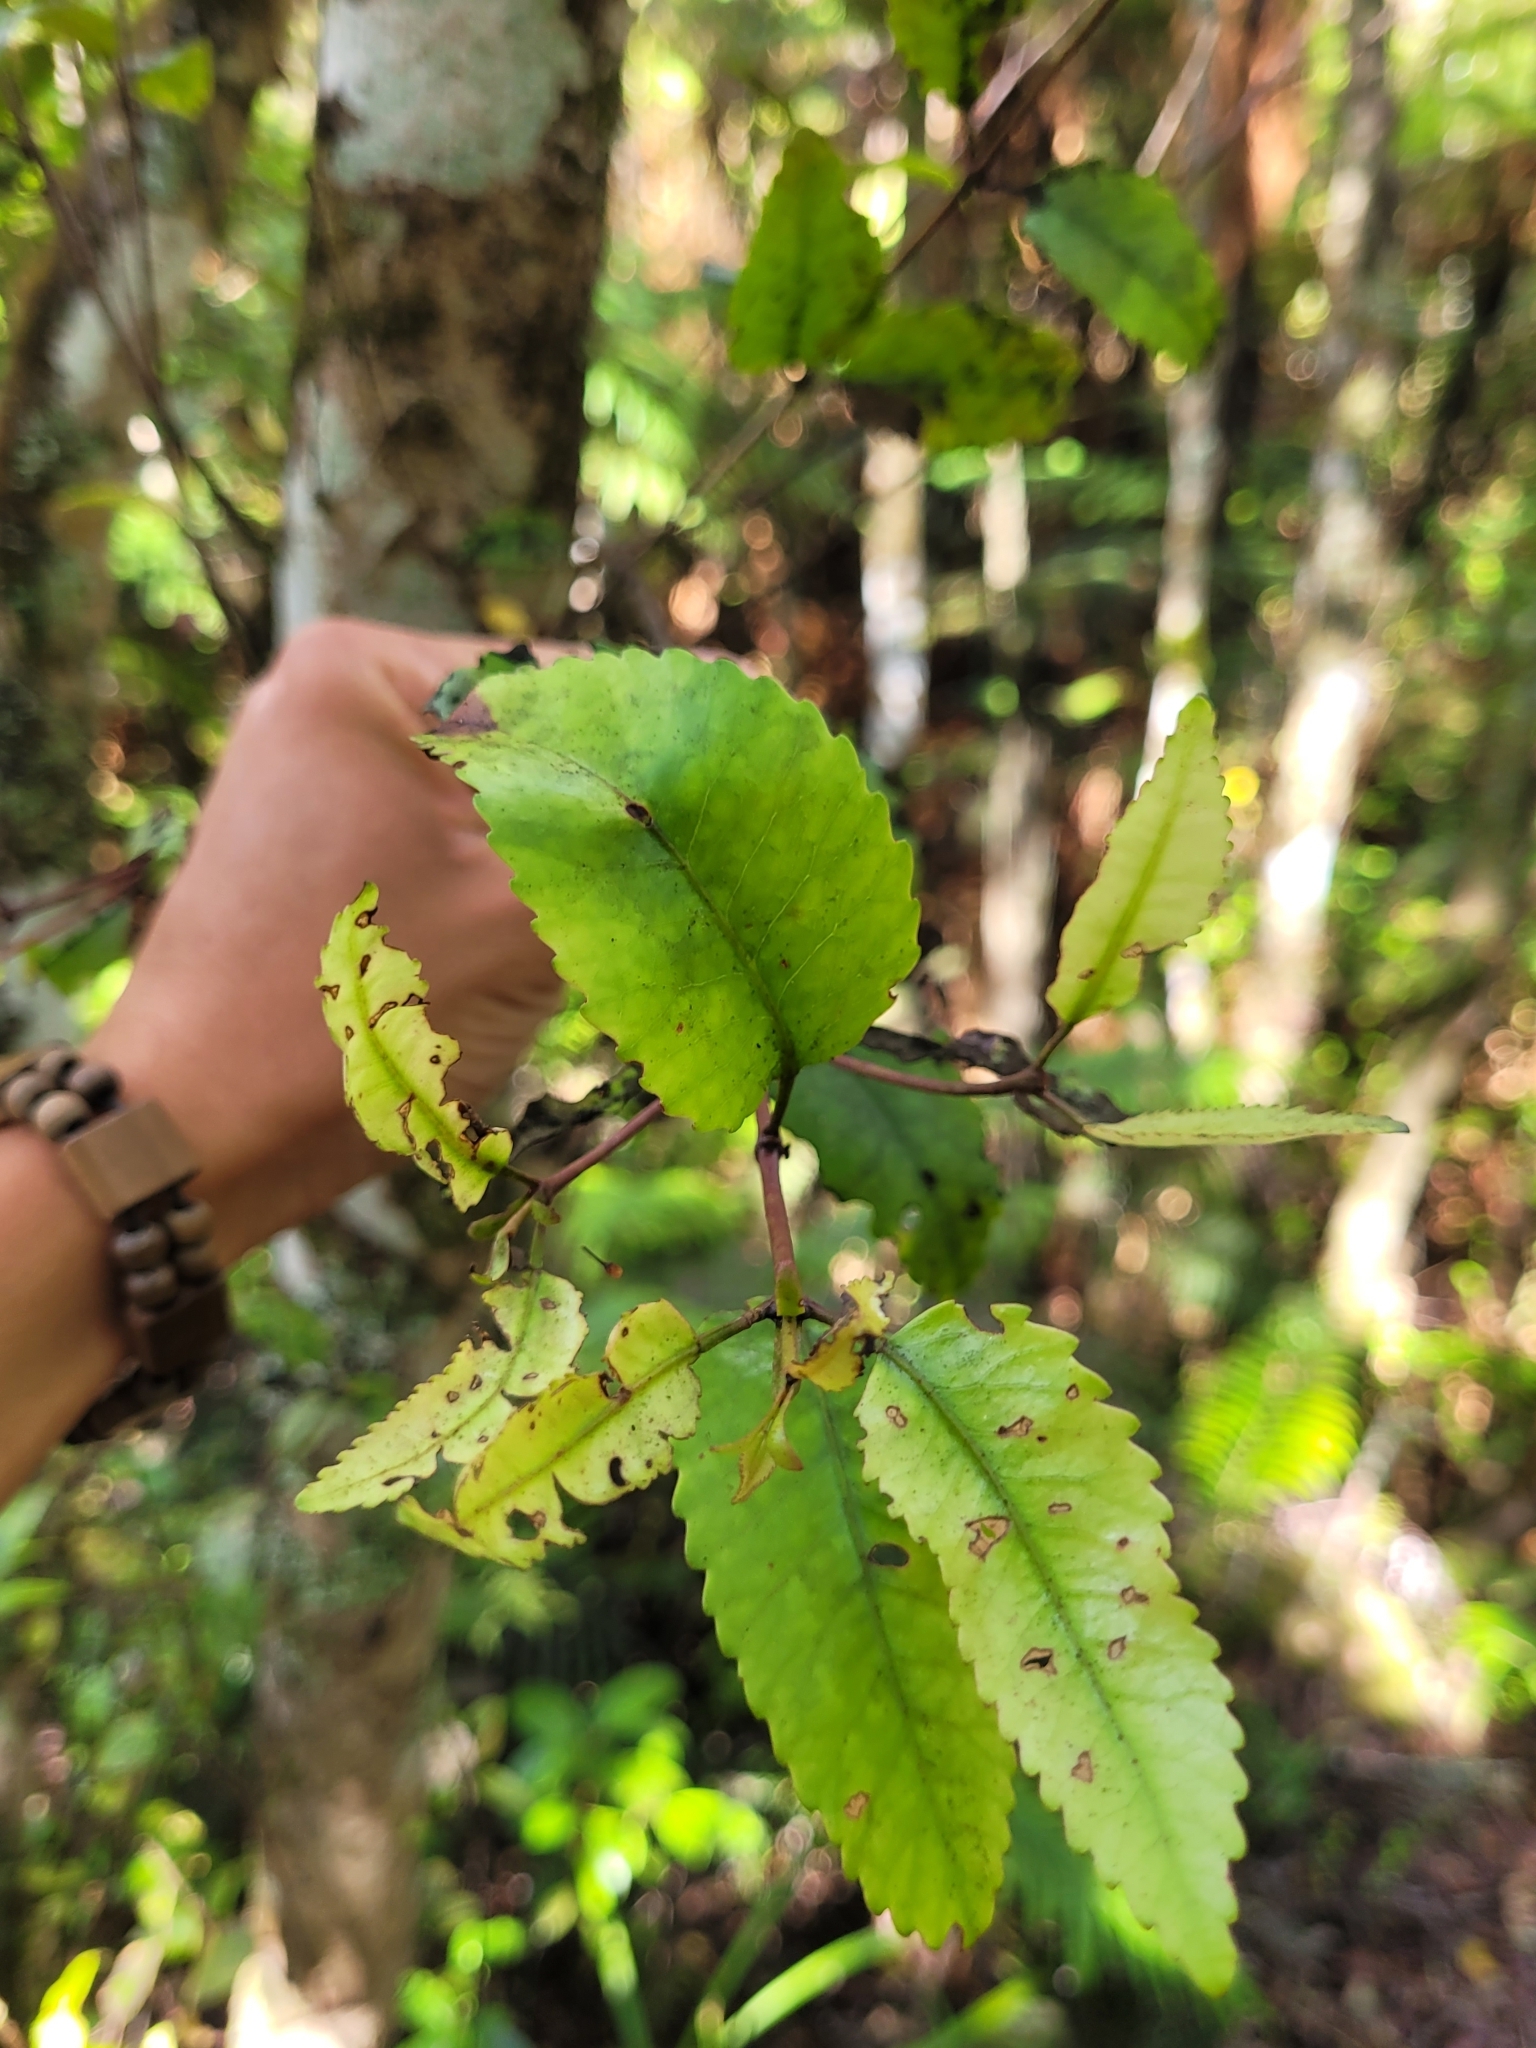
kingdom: Plantae
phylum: Tracheophyta
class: Magnoliopsida
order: Oxalidales
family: Cunoniaceae
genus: Pterophylla
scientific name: Pterophylla racemosa
